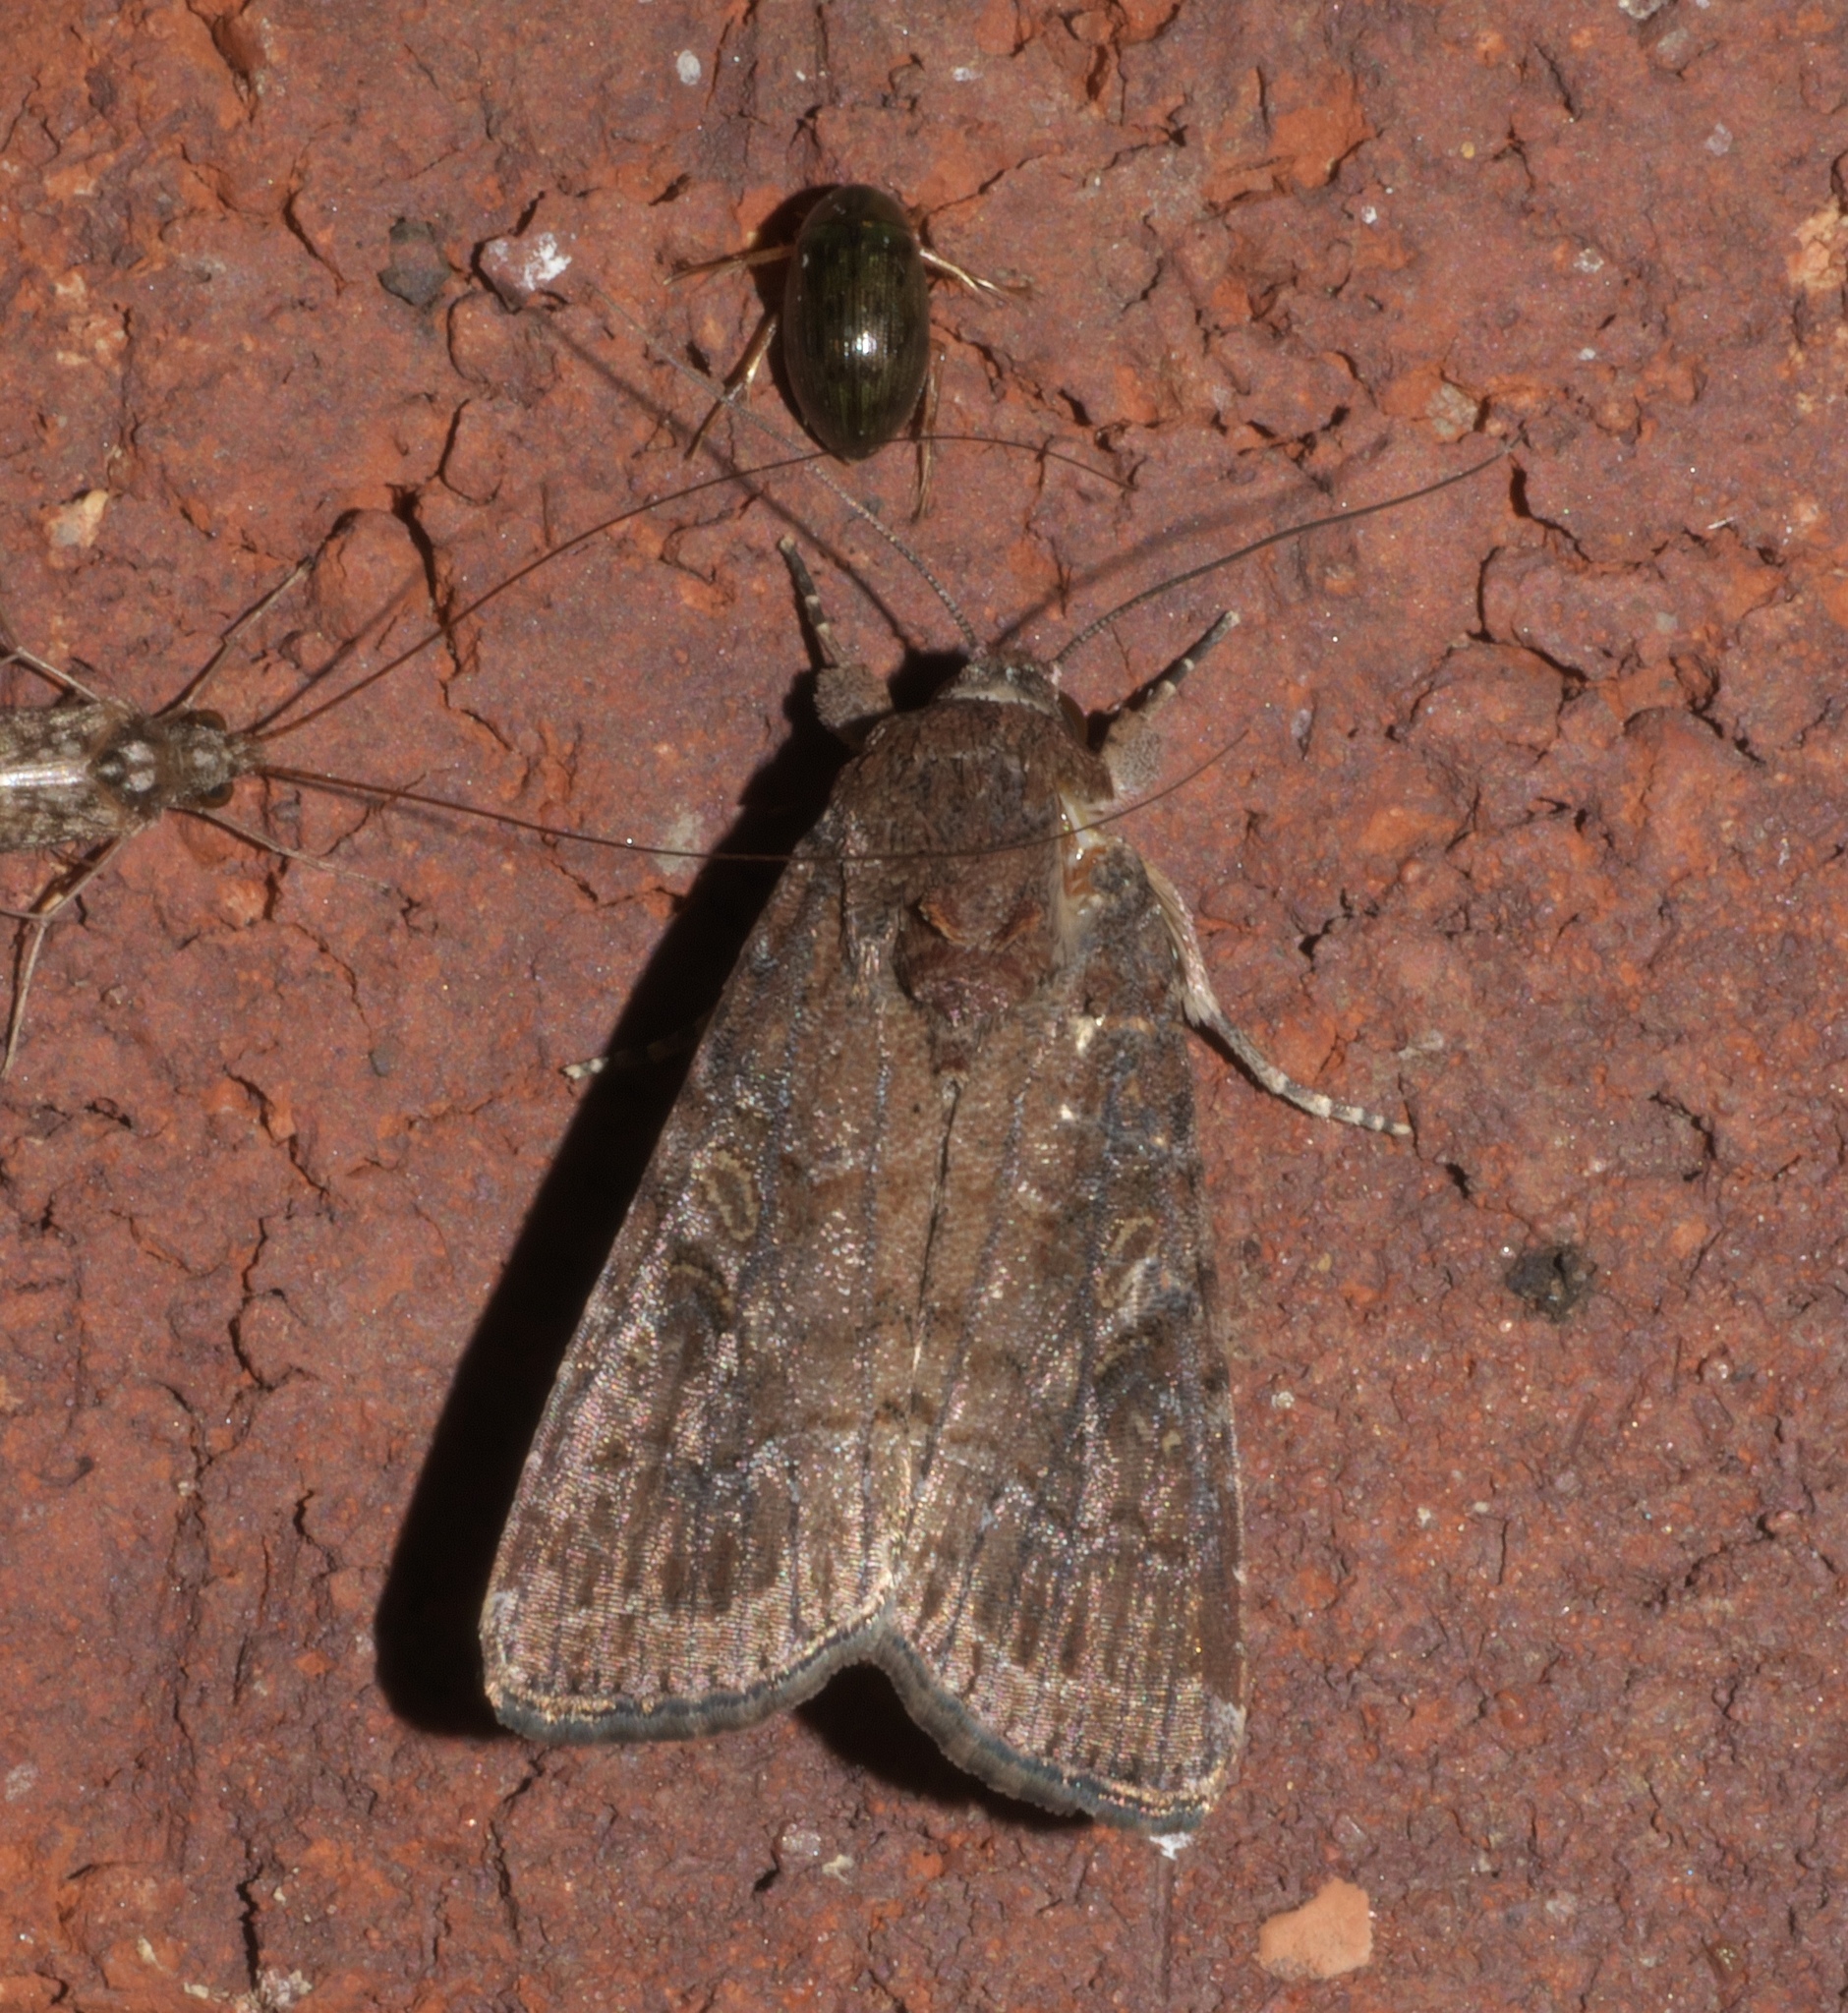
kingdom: Animalia
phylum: Arthropoda
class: Insecta
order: Lepidoptera
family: Noctuidae
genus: Spodoptera
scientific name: Spodoptera frugiperda
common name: Fall armyworm
